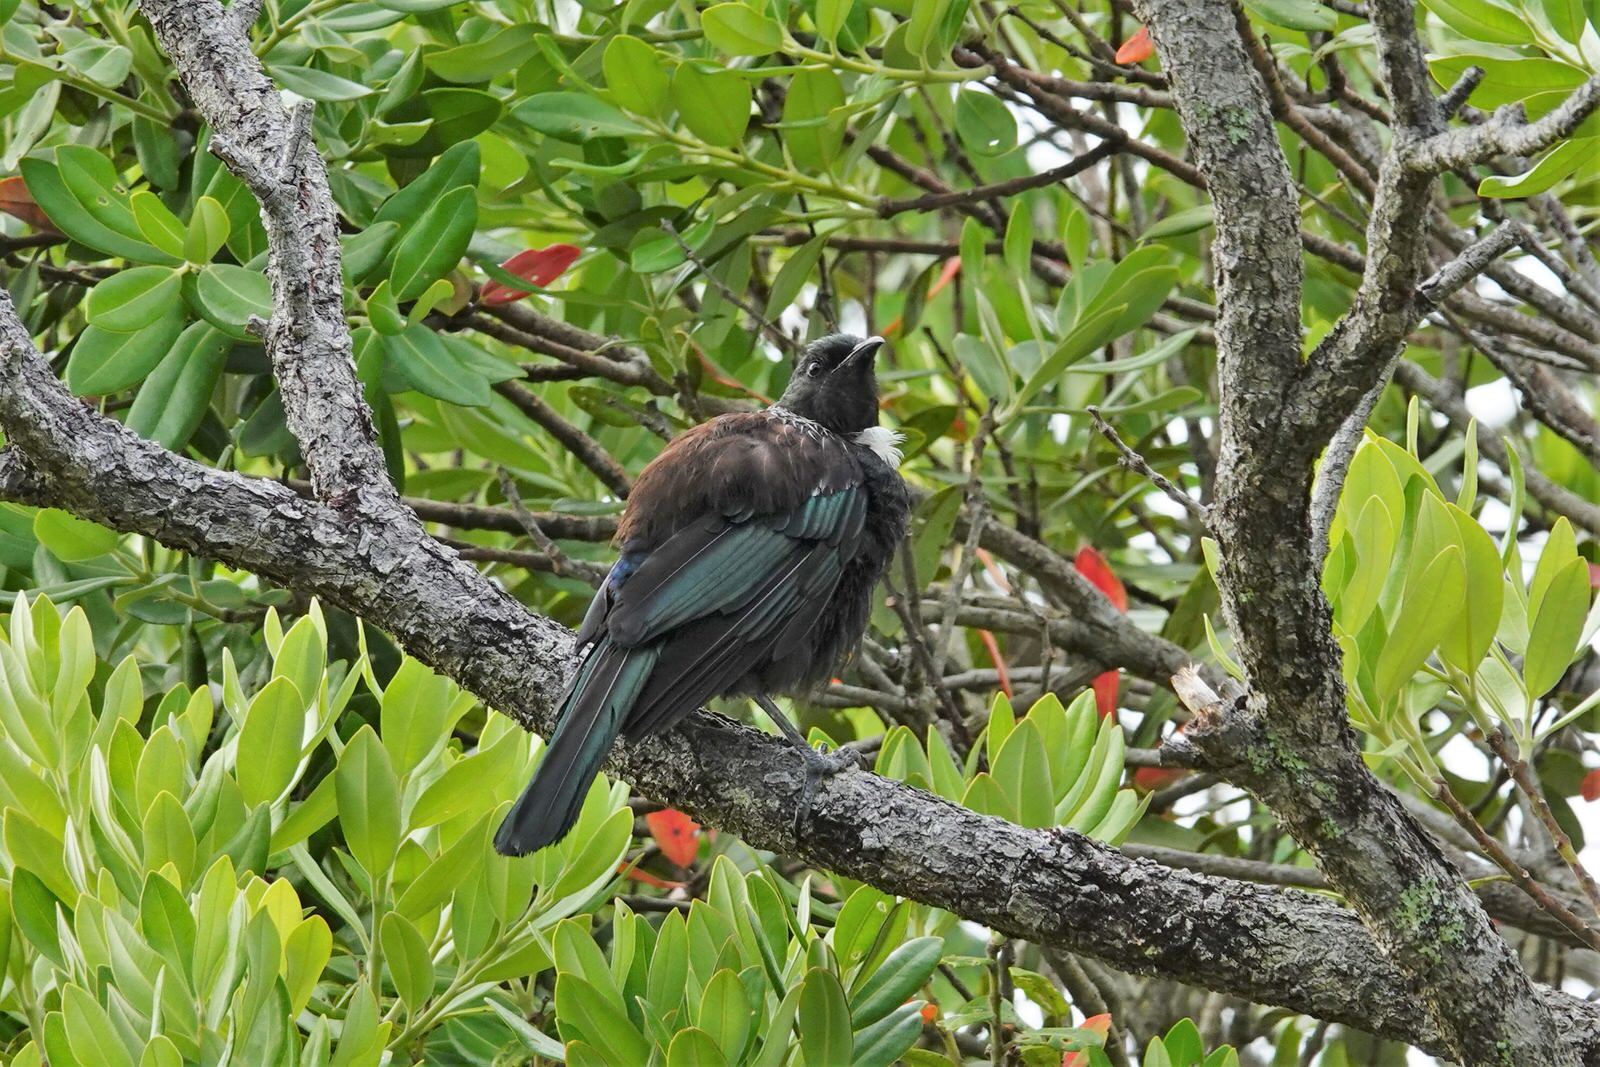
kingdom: Animalia
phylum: Chordata
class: Aves
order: Passeriformes
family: Meliphagidae
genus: Prosthemadera
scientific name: Prosthemadera novaeseelandiae
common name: Tui
